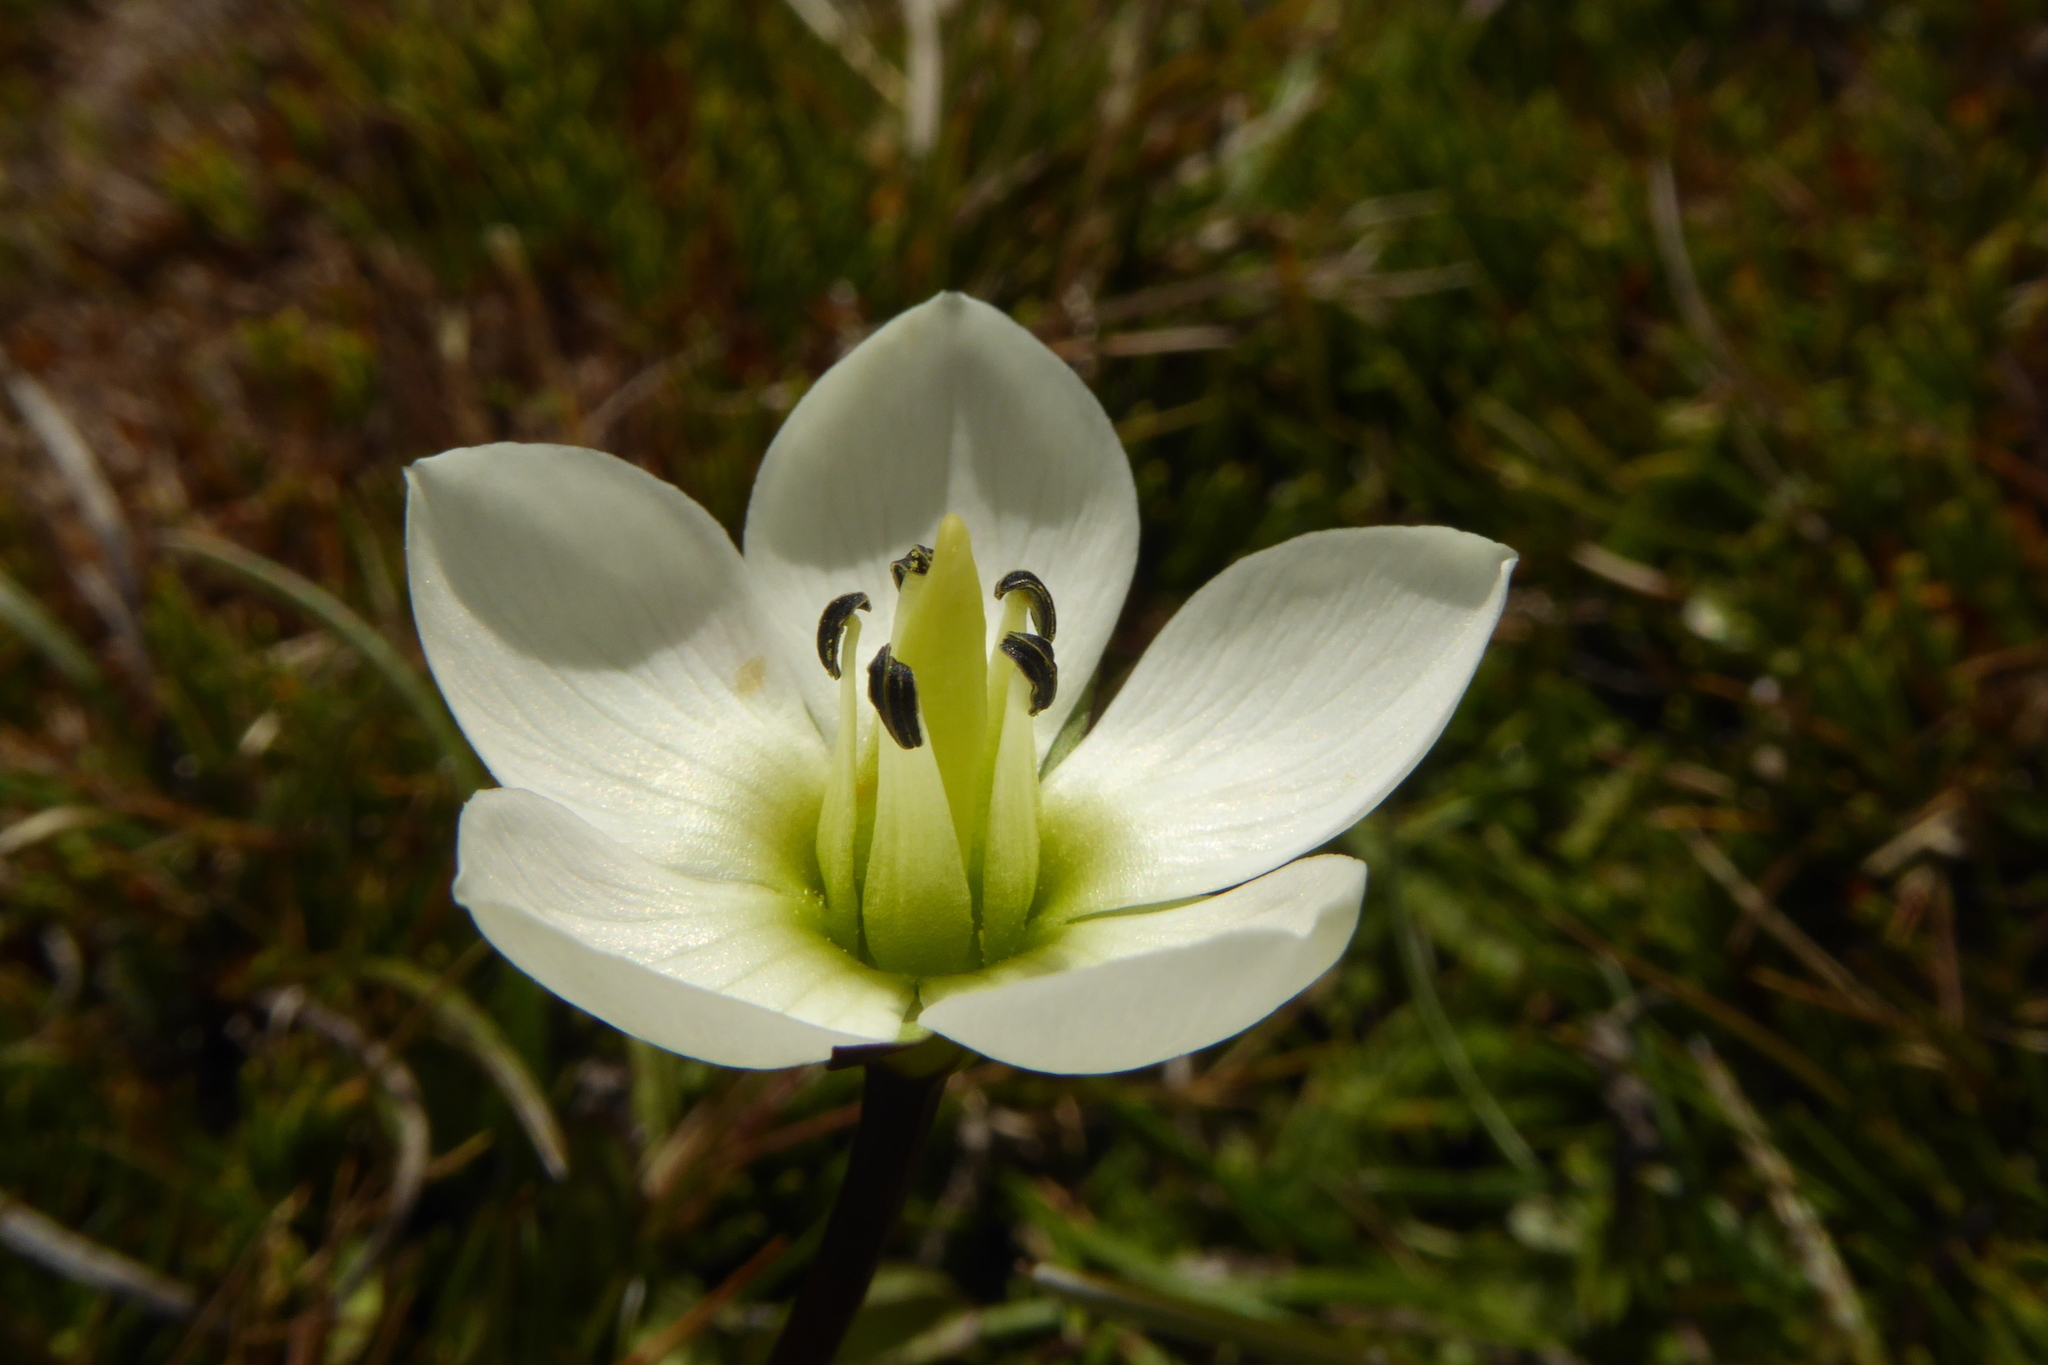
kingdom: Plantae
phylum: Tracheophyta
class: Magnoliopsida
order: Gentianales
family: Gentianaceae
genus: Gentianella
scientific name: Gentianella amabilis
